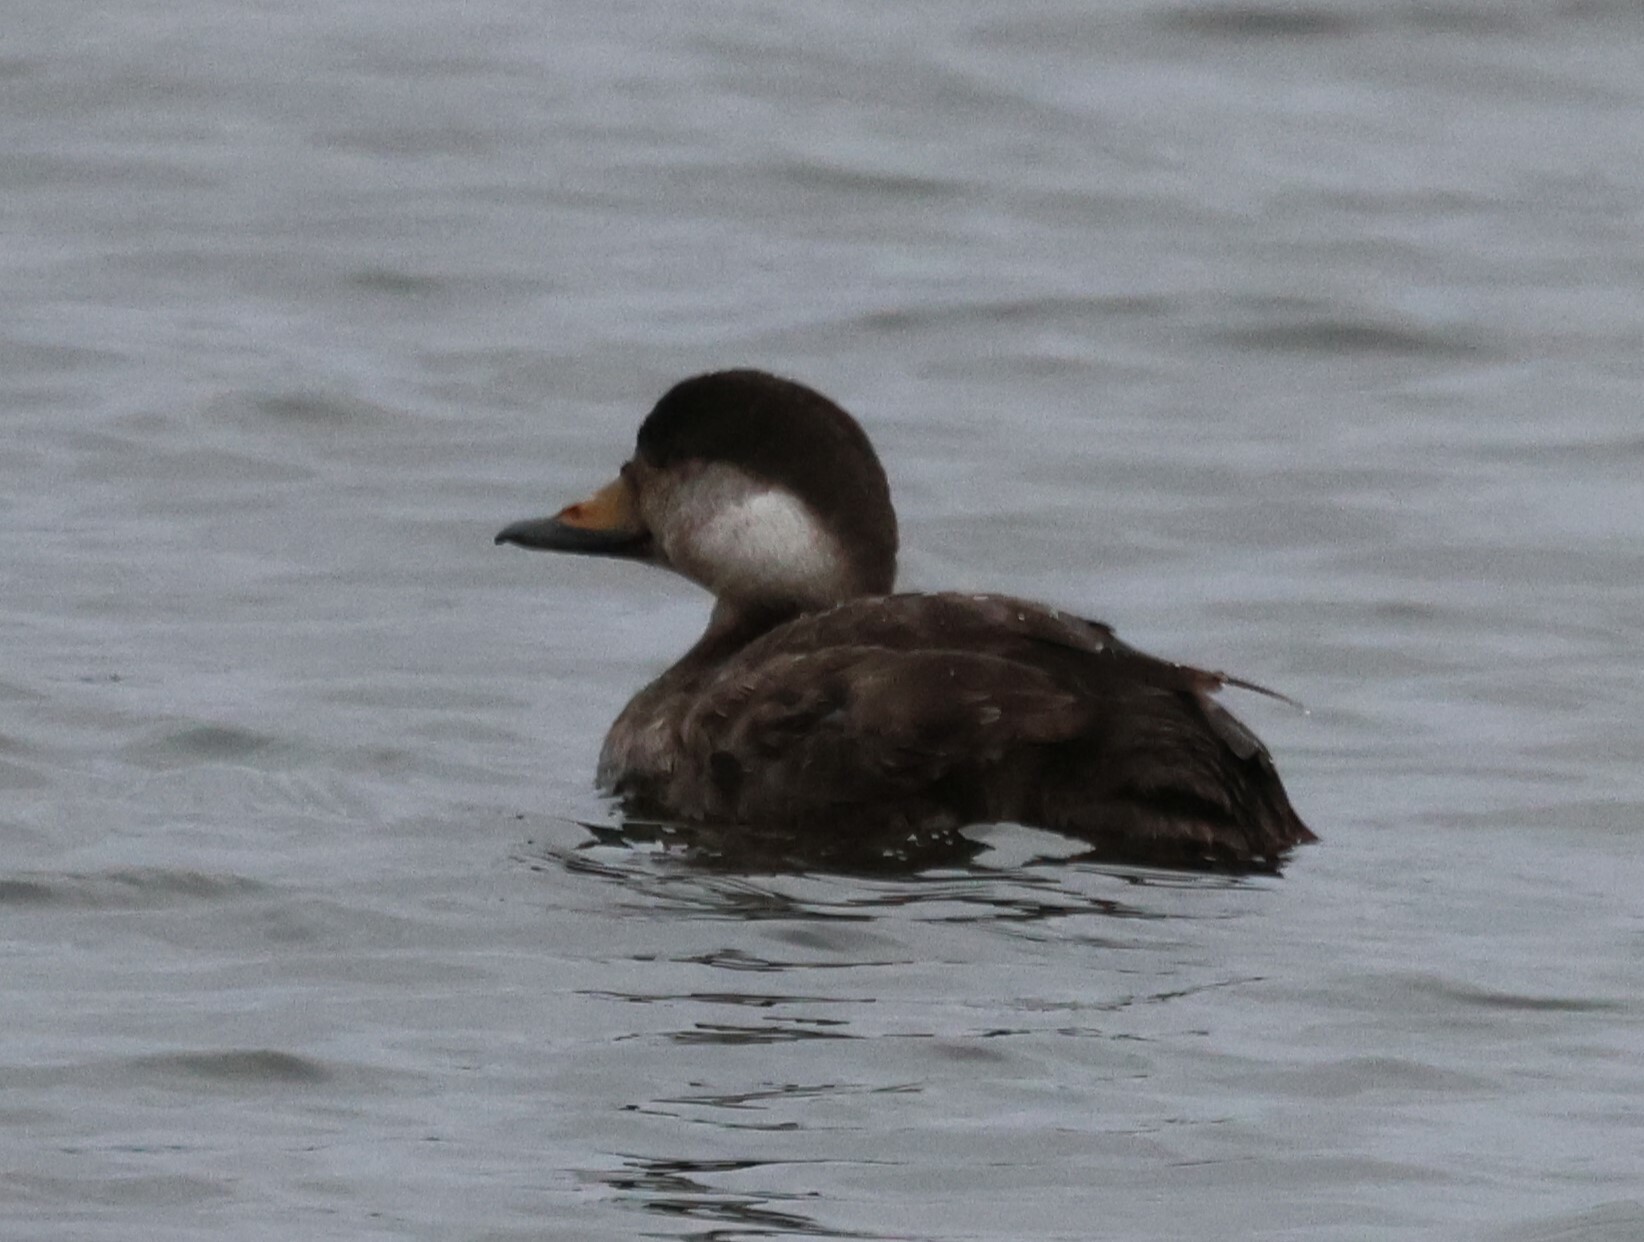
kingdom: Animalia
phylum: Chordata
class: Aves
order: Anseriformes
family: Anatidae
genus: Melanitta
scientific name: Melanitta americana
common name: Black scoter
